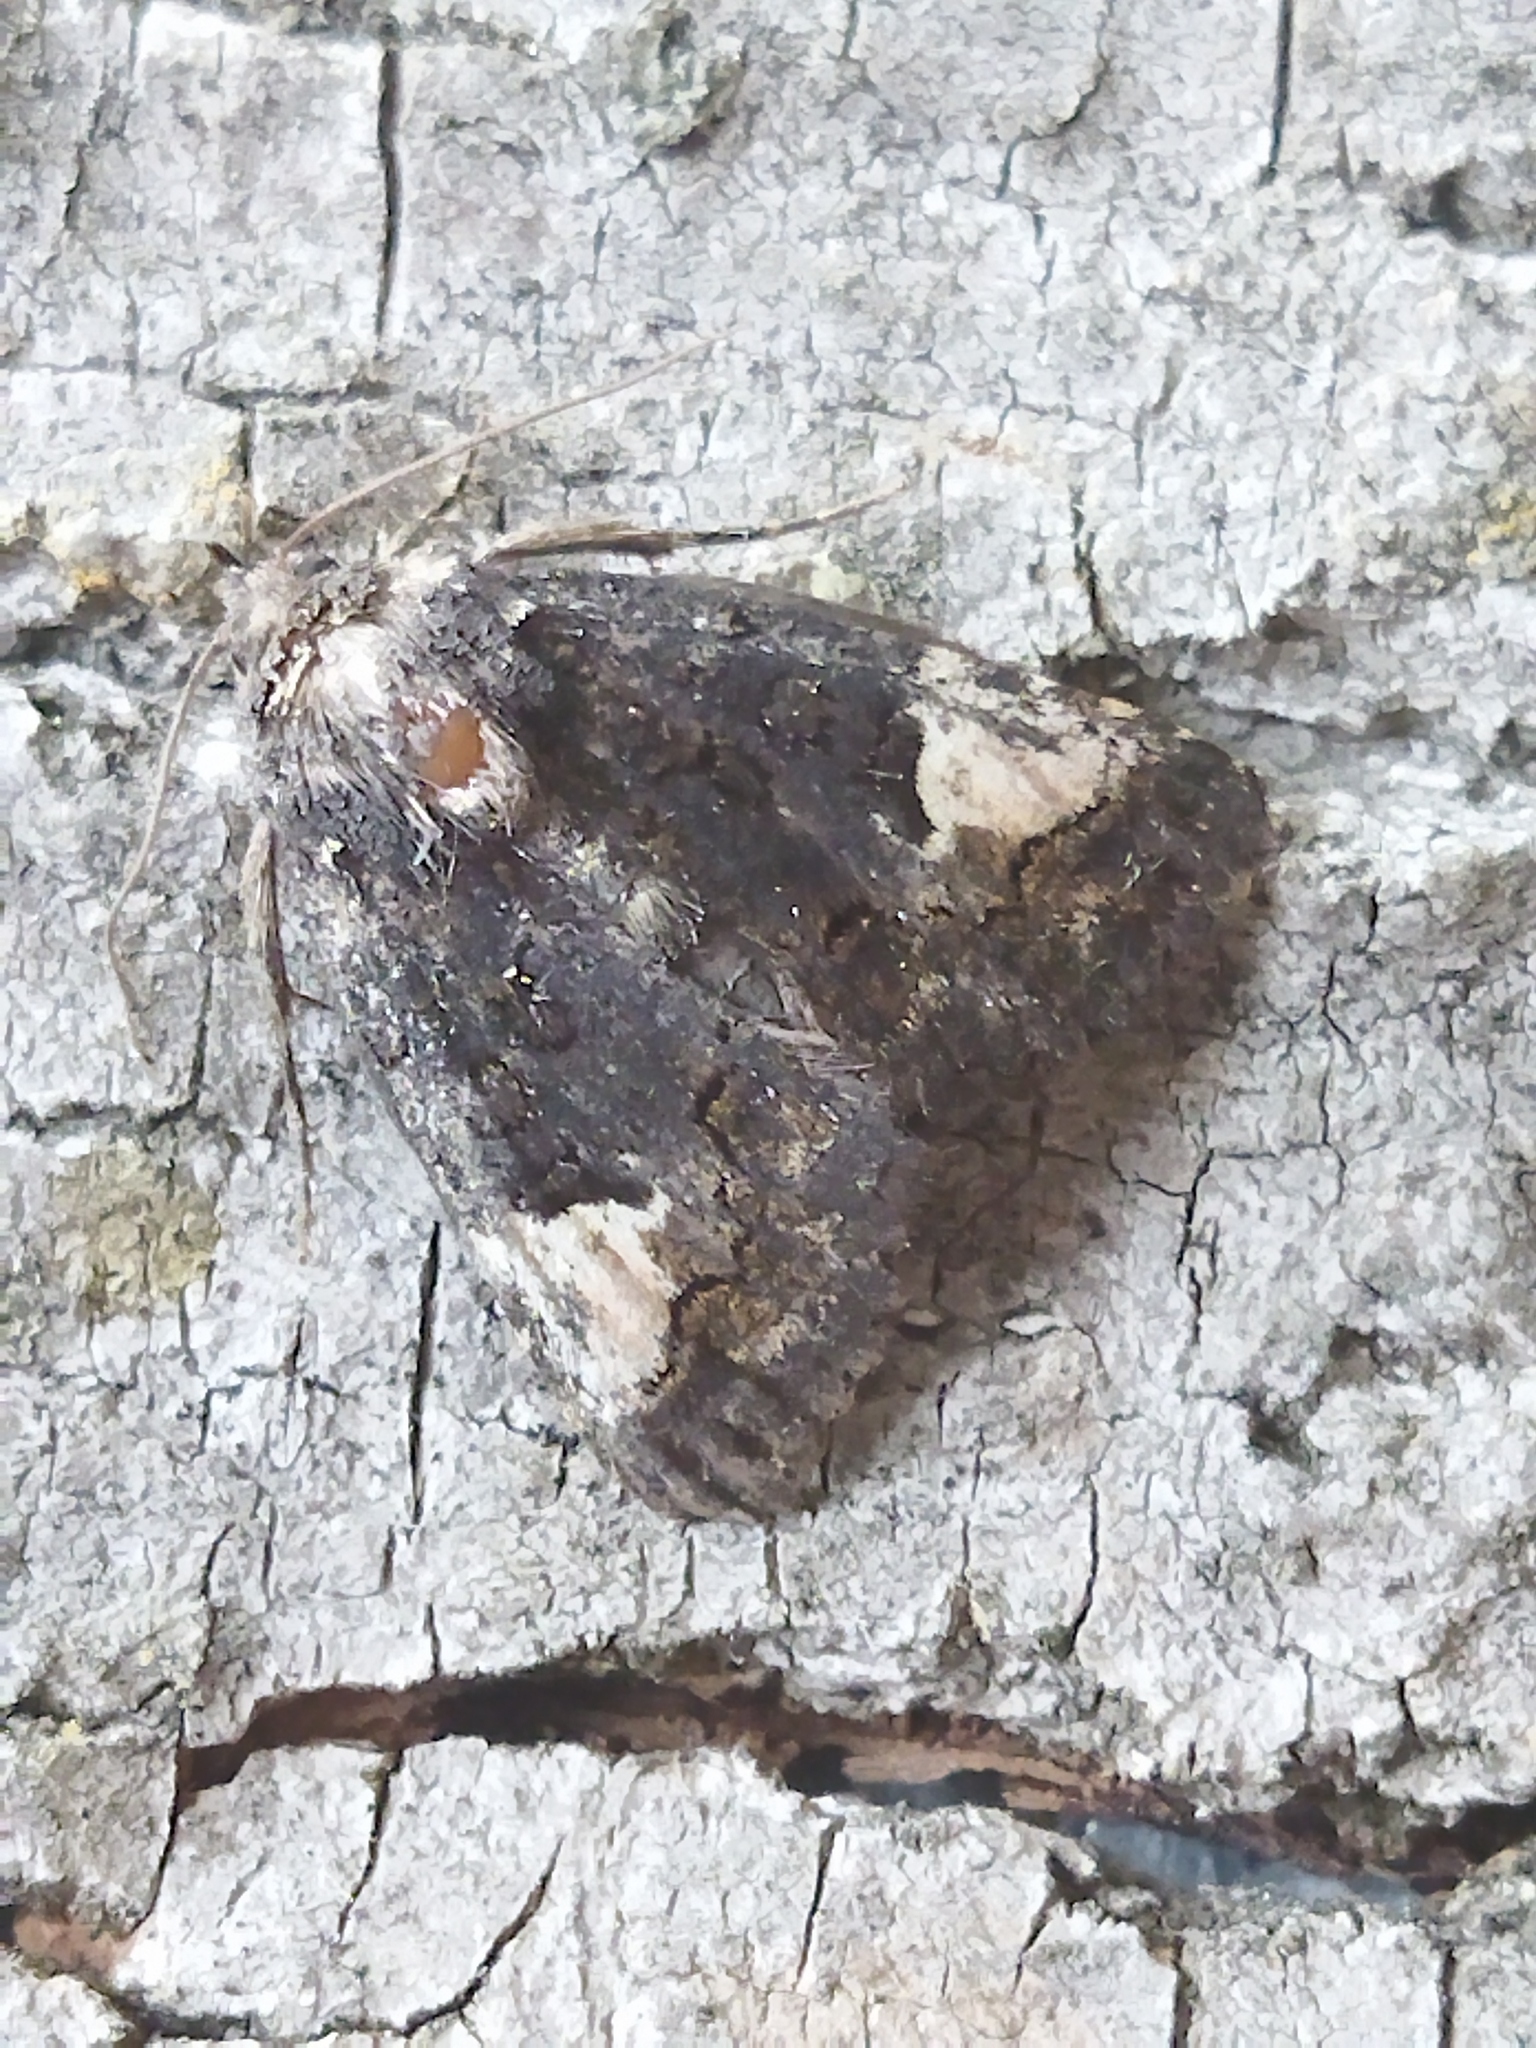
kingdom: Animalia
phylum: Arthropoda
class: Insecta
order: Lepidoptera
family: Noctuidae
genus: Aedia
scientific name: Aedia funesta
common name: The druid
